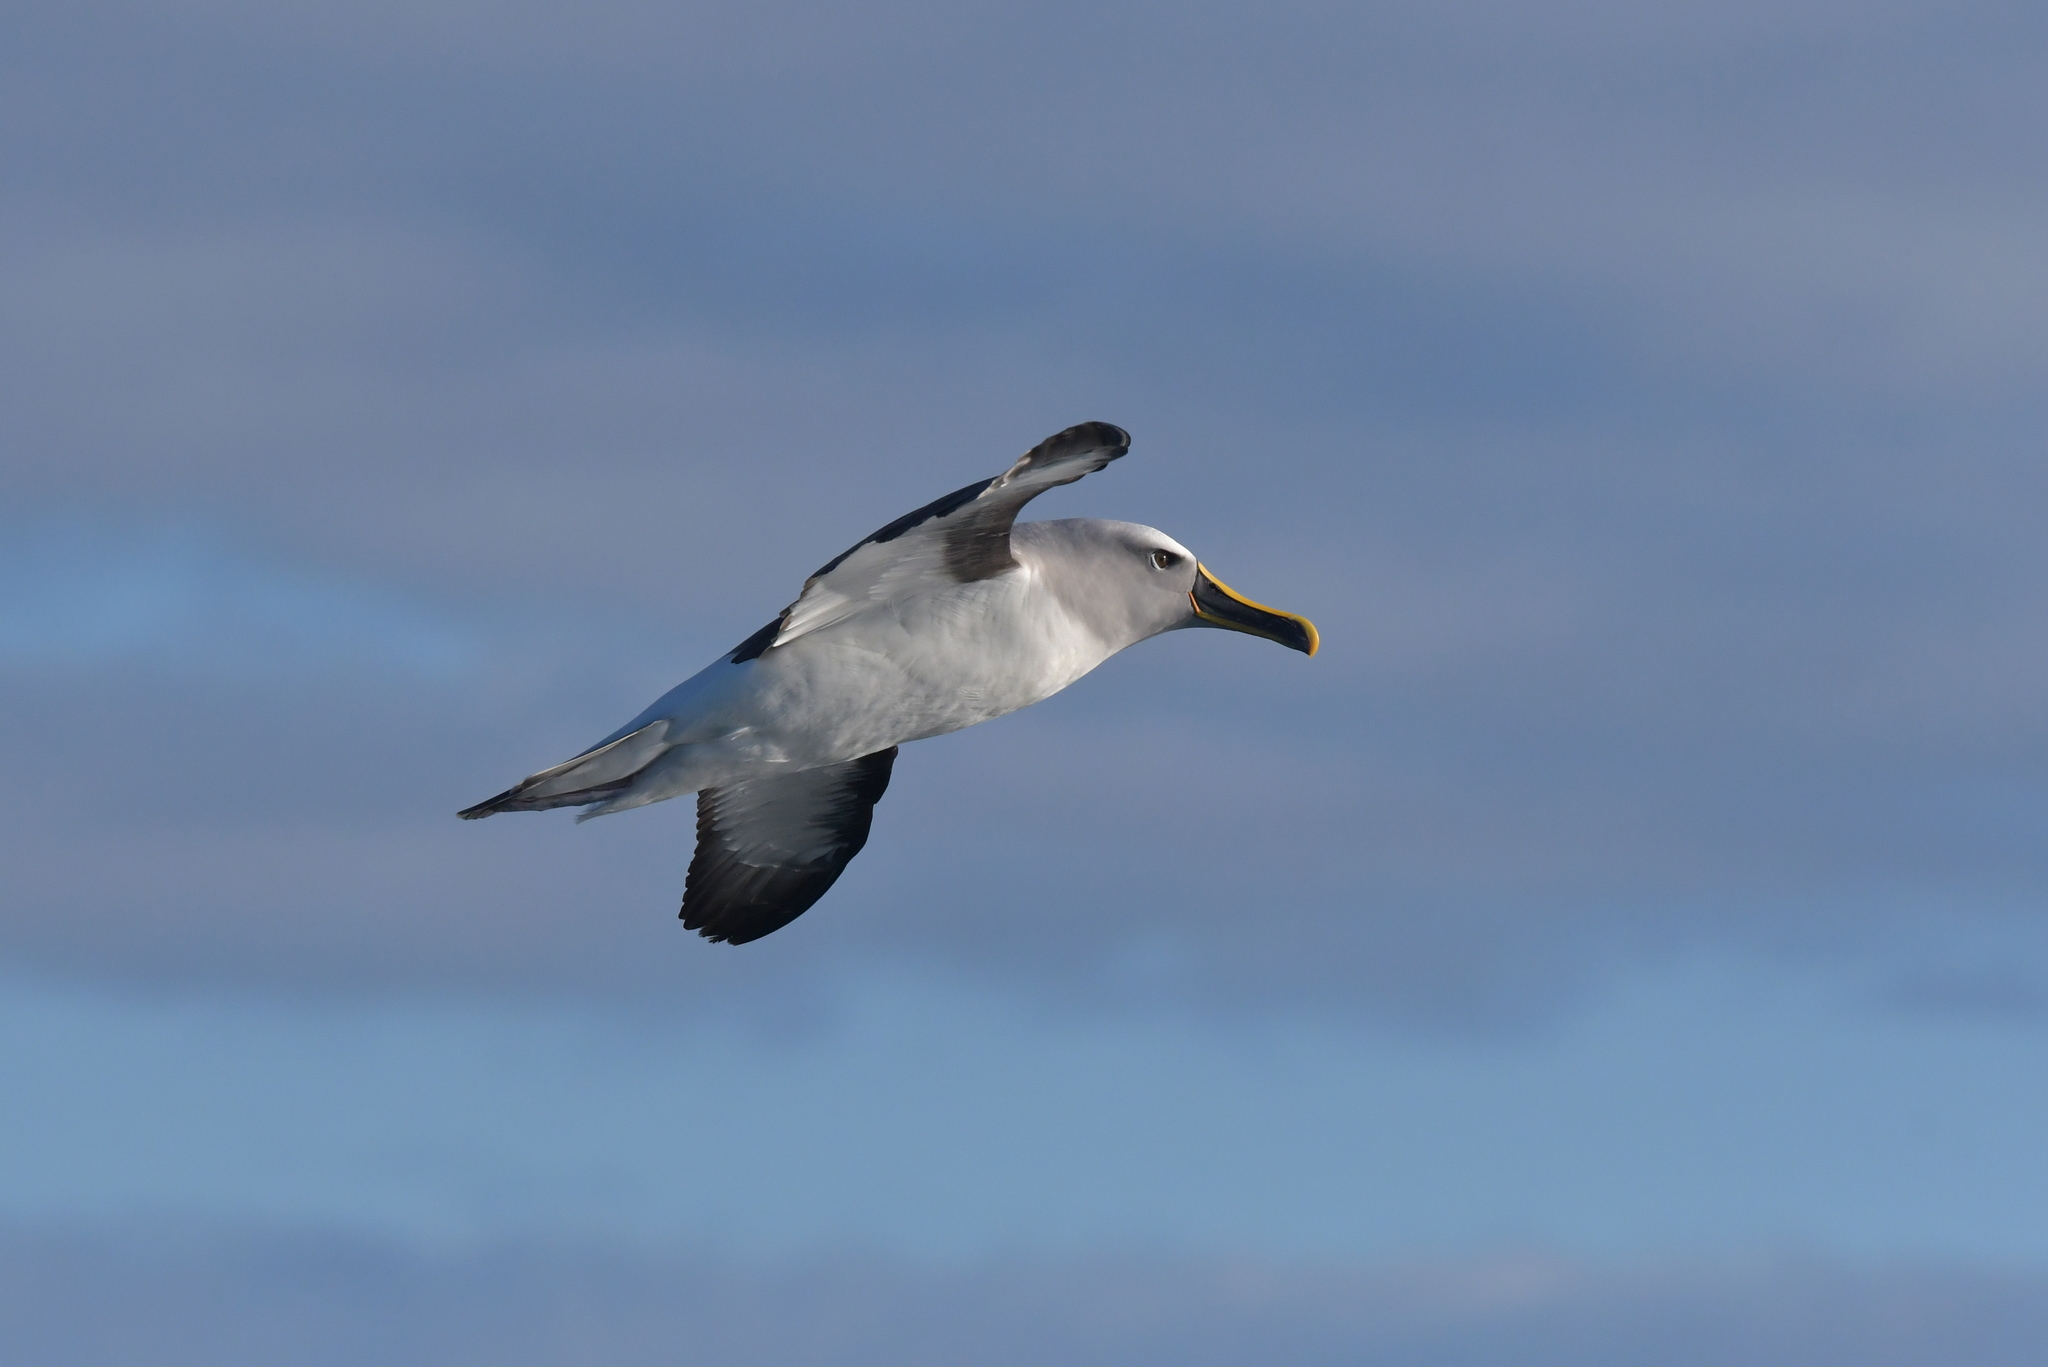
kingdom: Animalia
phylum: Chordata
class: Aves
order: Procellariiformes
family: Diomedeidae
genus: Thalassarche
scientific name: Thalassarche bulleri
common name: Buller's albatross
